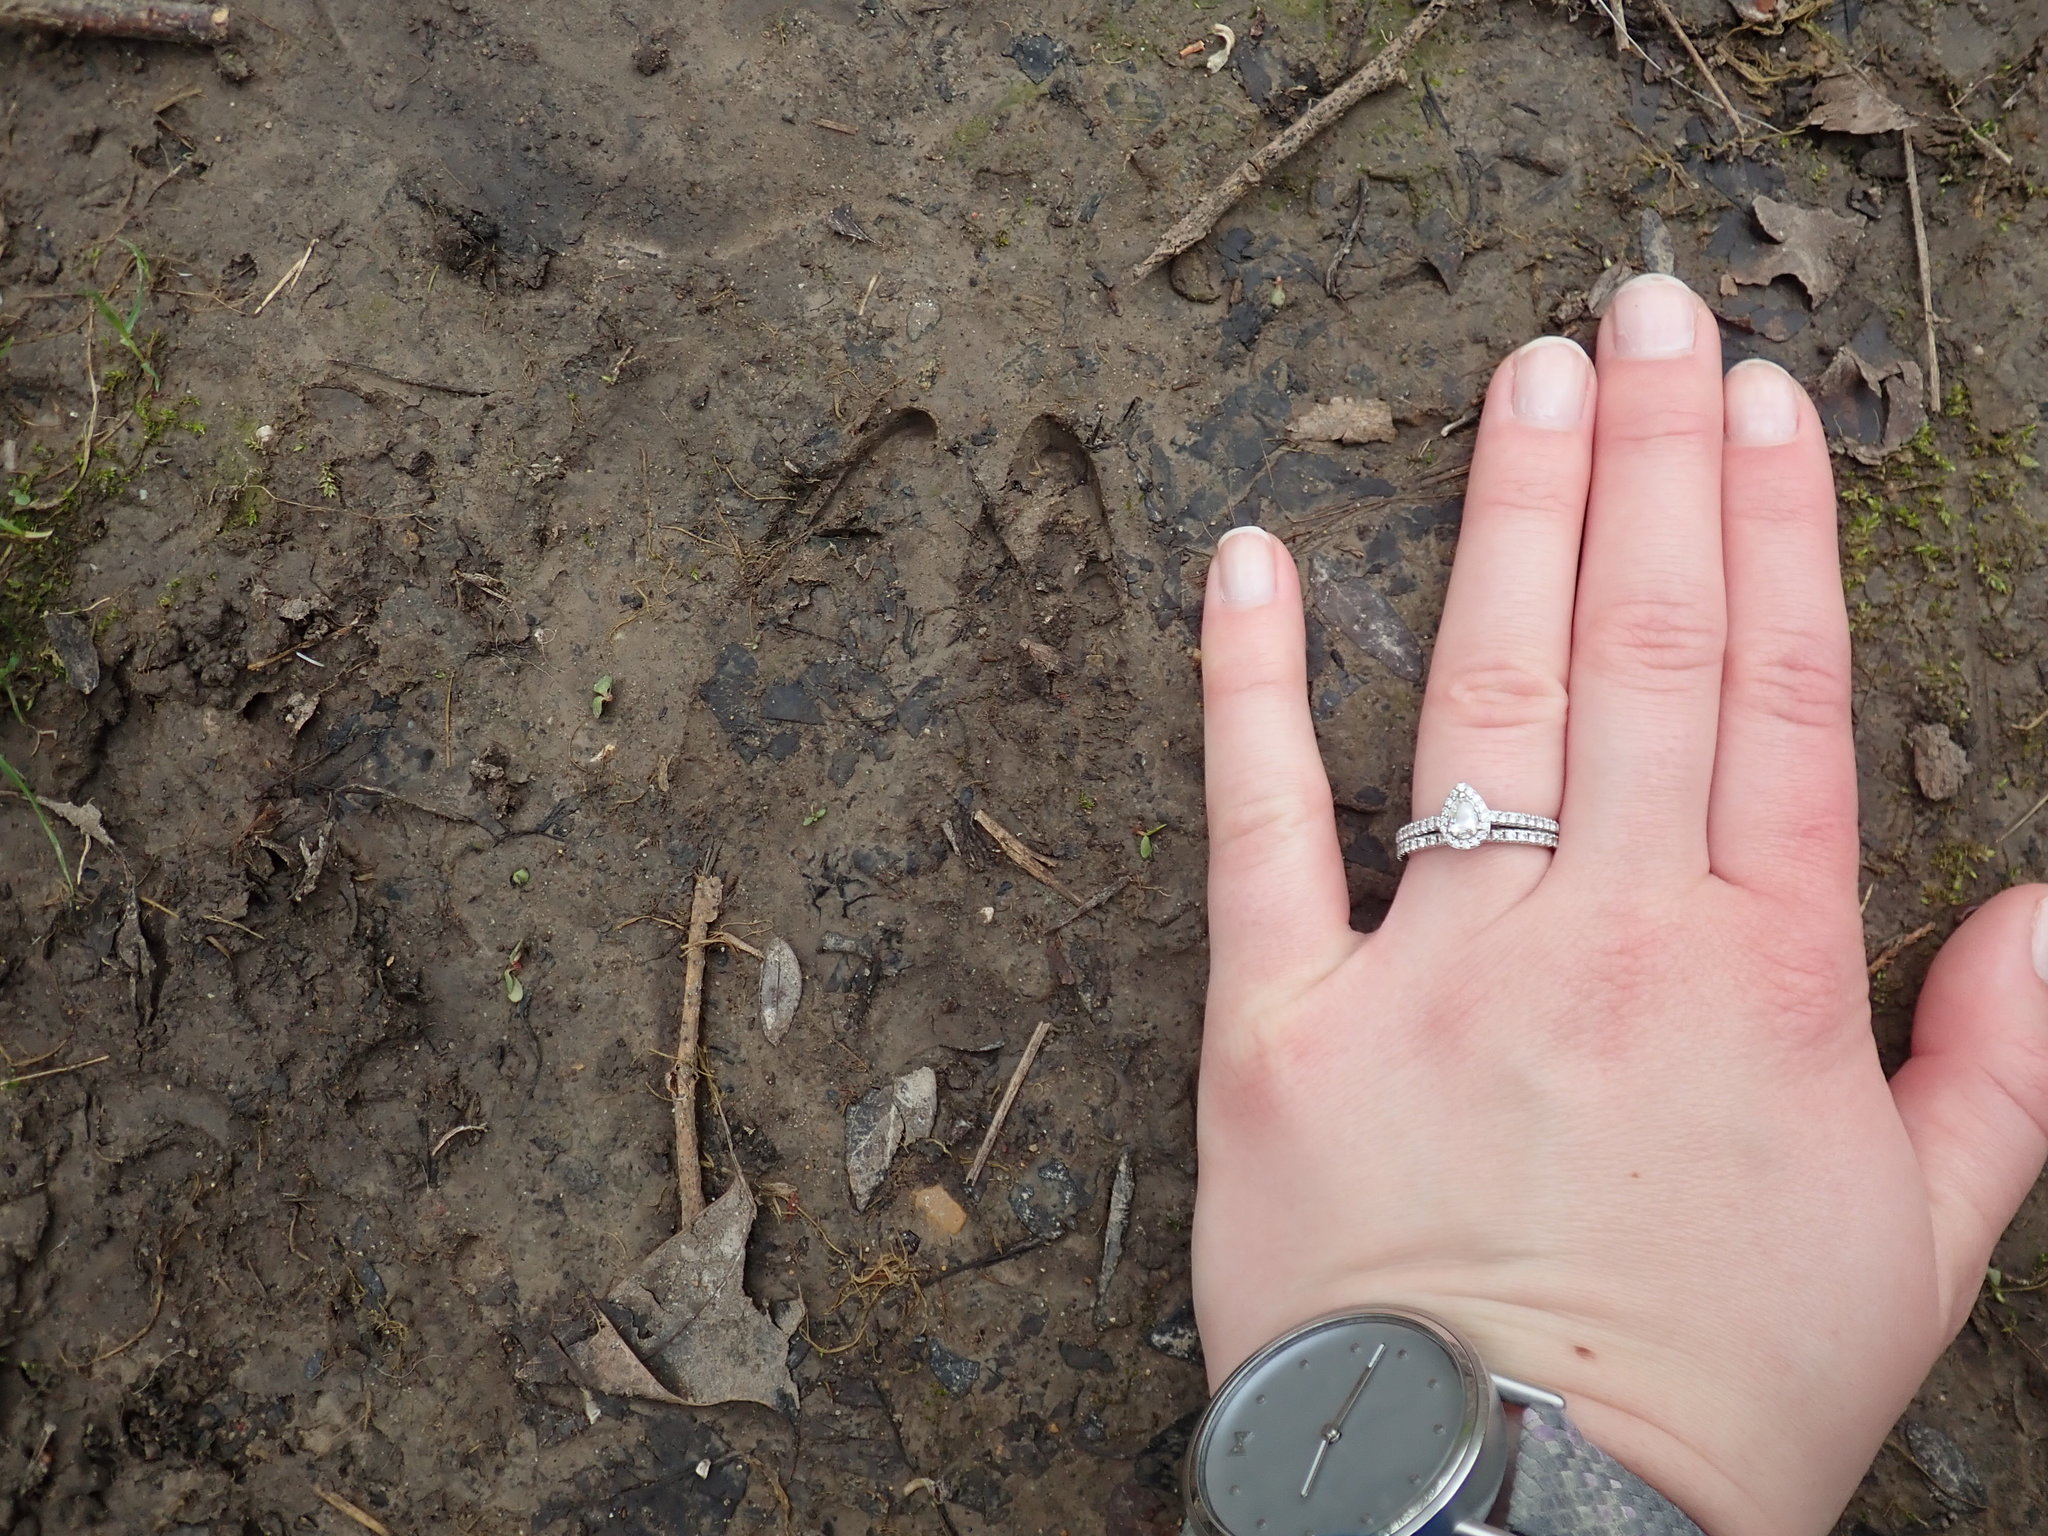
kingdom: Animalia
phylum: Chordata
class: Mammalia
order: Artiodactyla
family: Cervidae
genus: Odocoileus
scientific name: Odocoileus virginianus
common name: White-tailed deer
